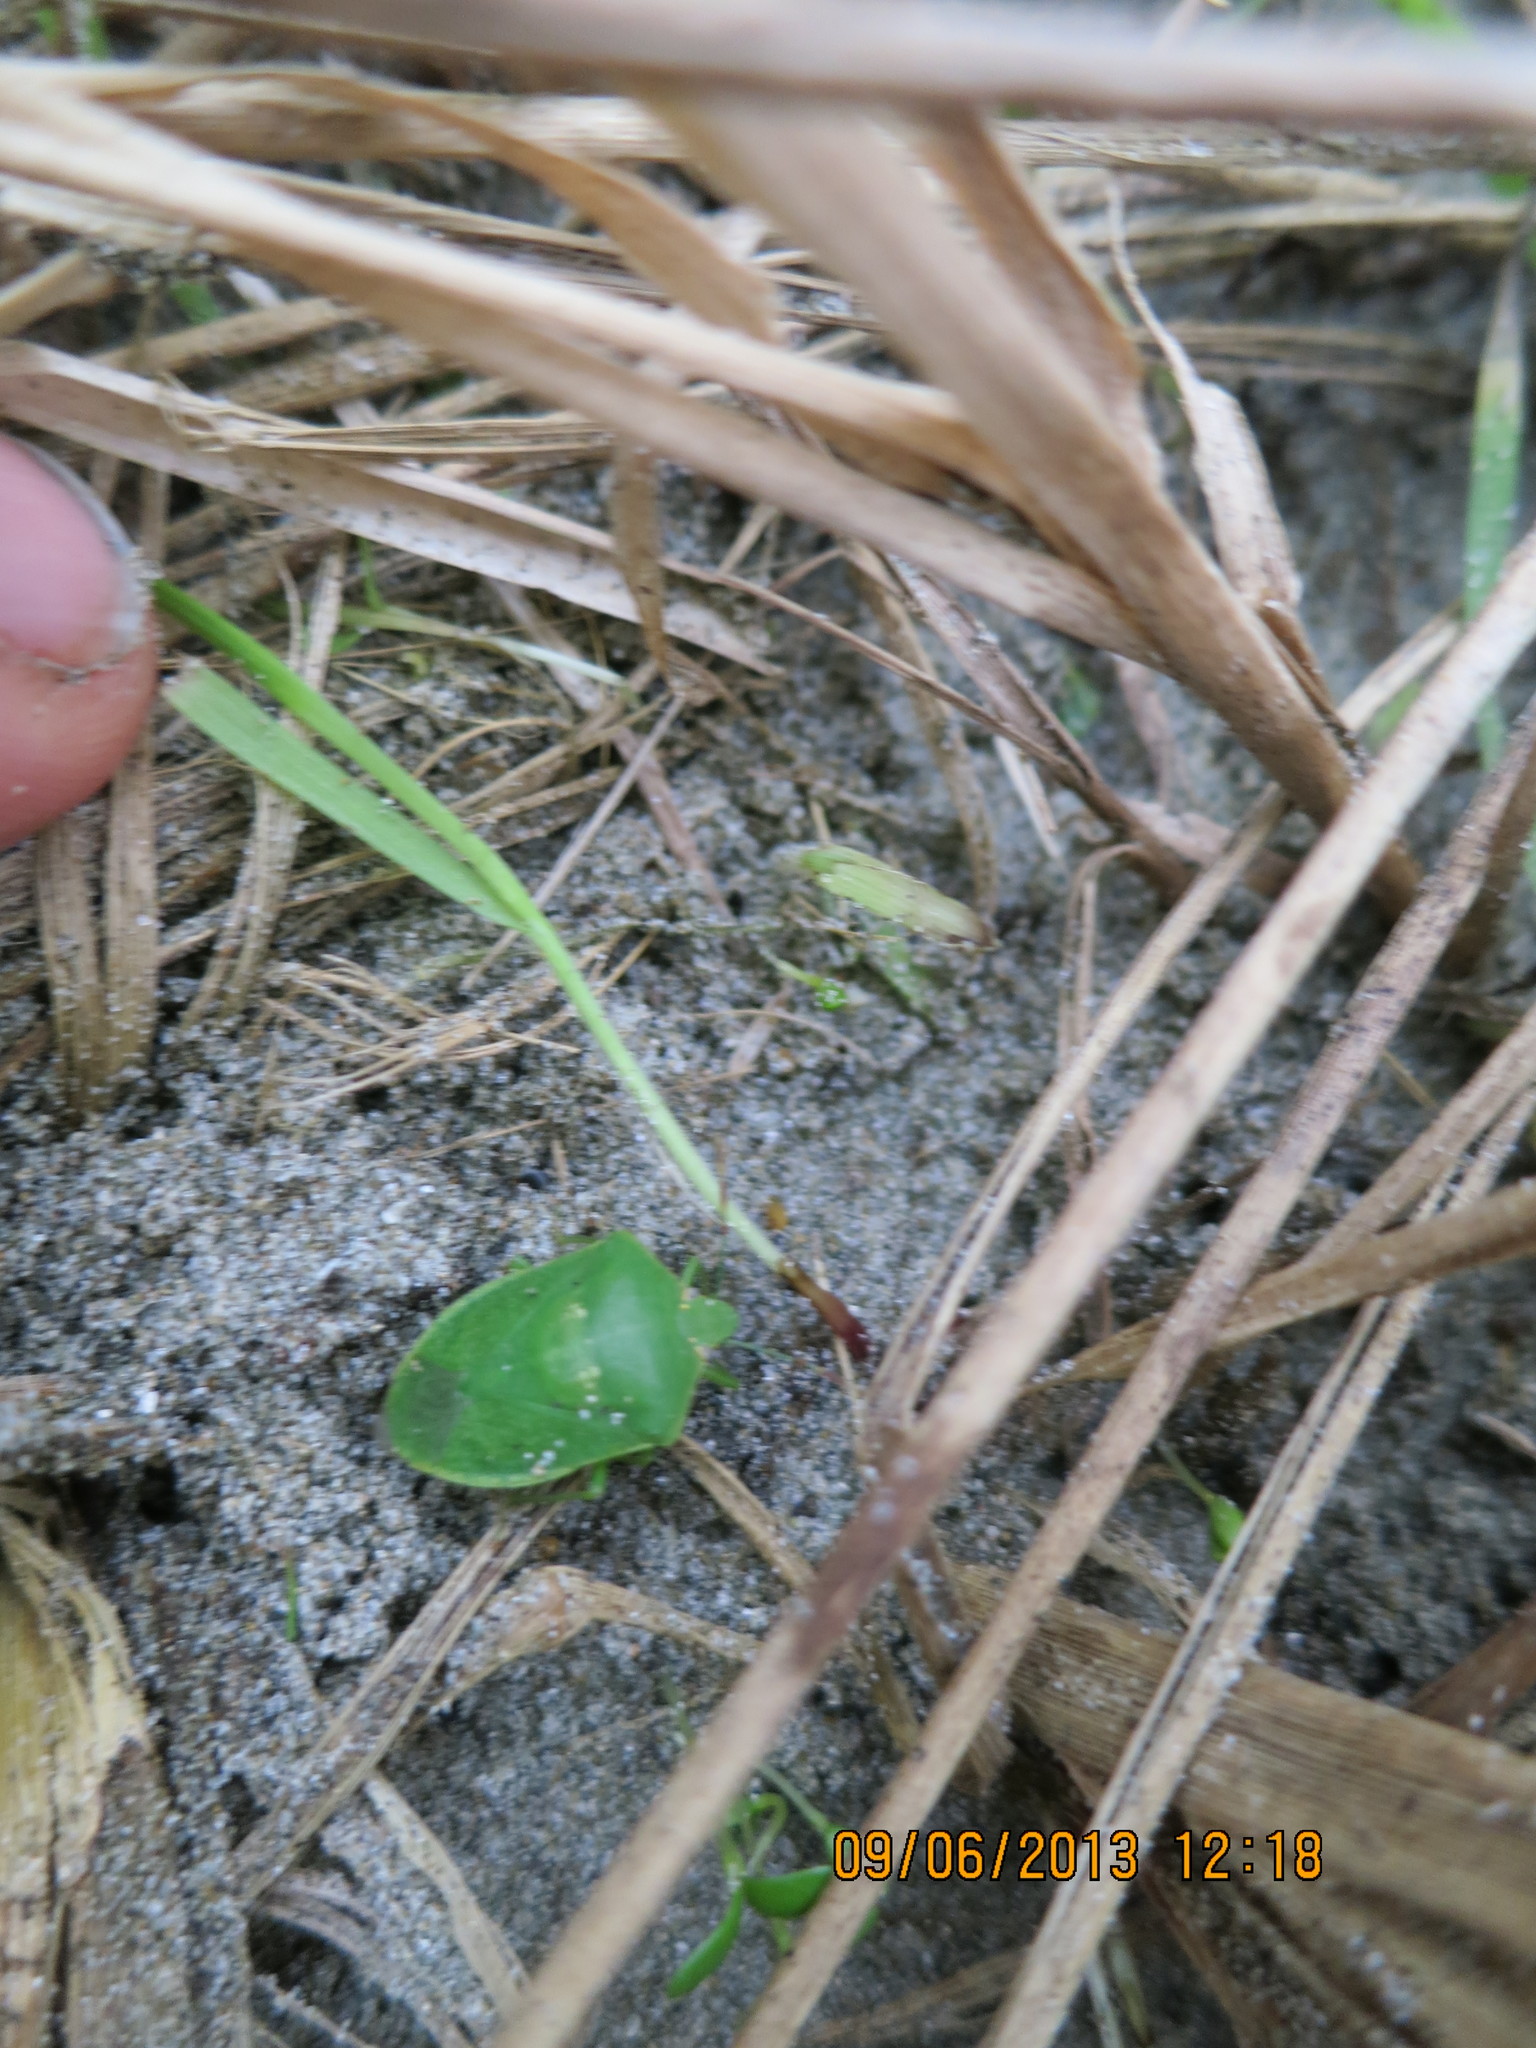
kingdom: Animalia
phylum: Arthropoda
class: Insecta
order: Hemiptera
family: Pentatomidae
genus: Nezara
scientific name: Nezara viridula
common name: Southern green stink bug
